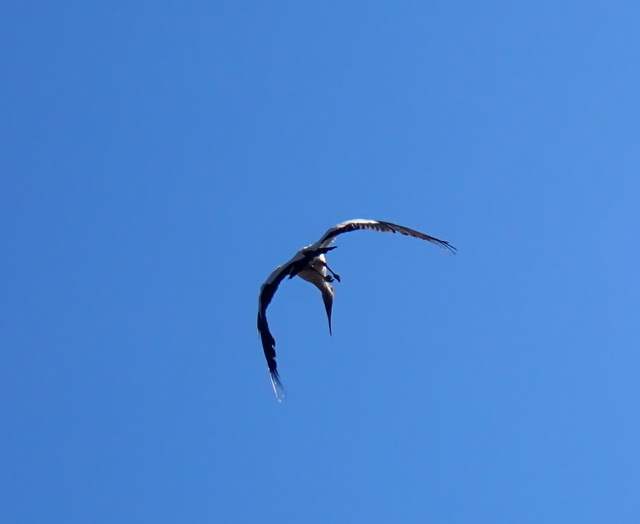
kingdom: Animalia
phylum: Chordata
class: Aves
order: Ciconiiformes
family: Ciconiidae
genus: Mycteria
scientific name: Mycteria americana
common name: Wood stork
